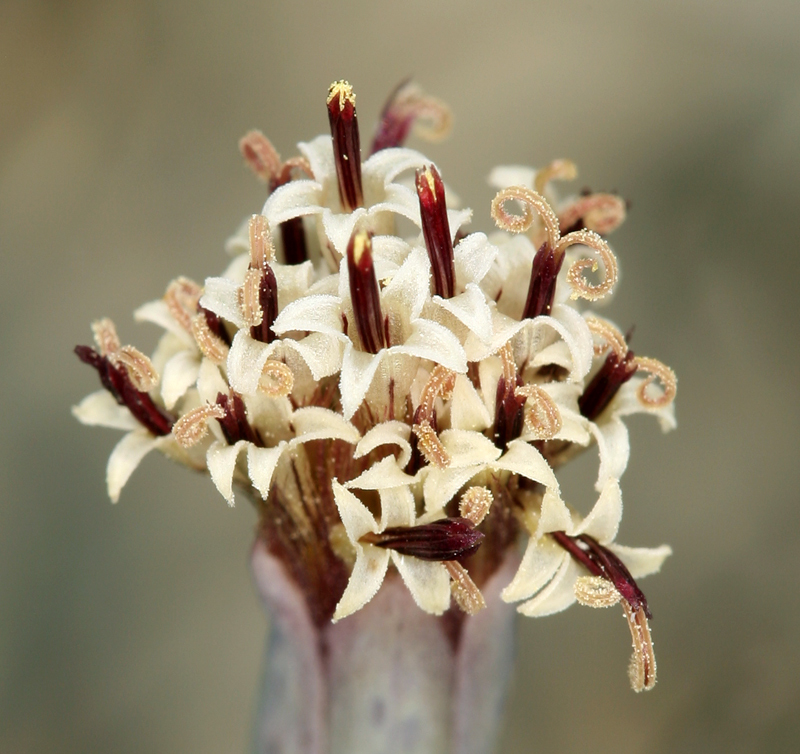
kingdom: Plantae
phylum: Tracheophyta
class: Magnoliopsida
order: Asterales
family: Asteraceae
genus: Porophyllum
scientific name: Porophyllum gracile
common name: Odora
